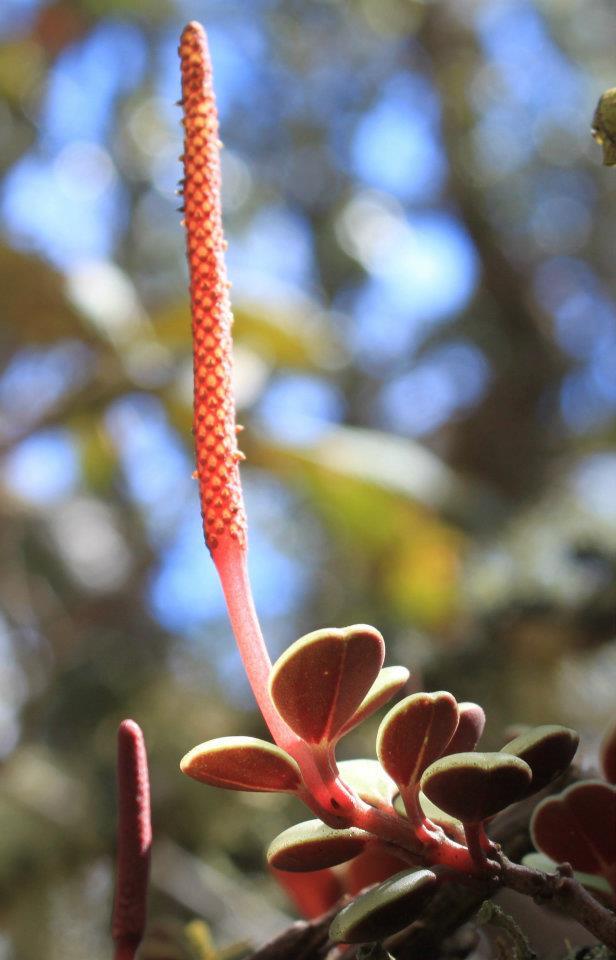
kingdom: Plantae
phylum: Tracheophyta
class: Magnoliopsida
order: Piperales
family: Piperaceae
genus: Peperomia
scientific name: Peperomia edulis
